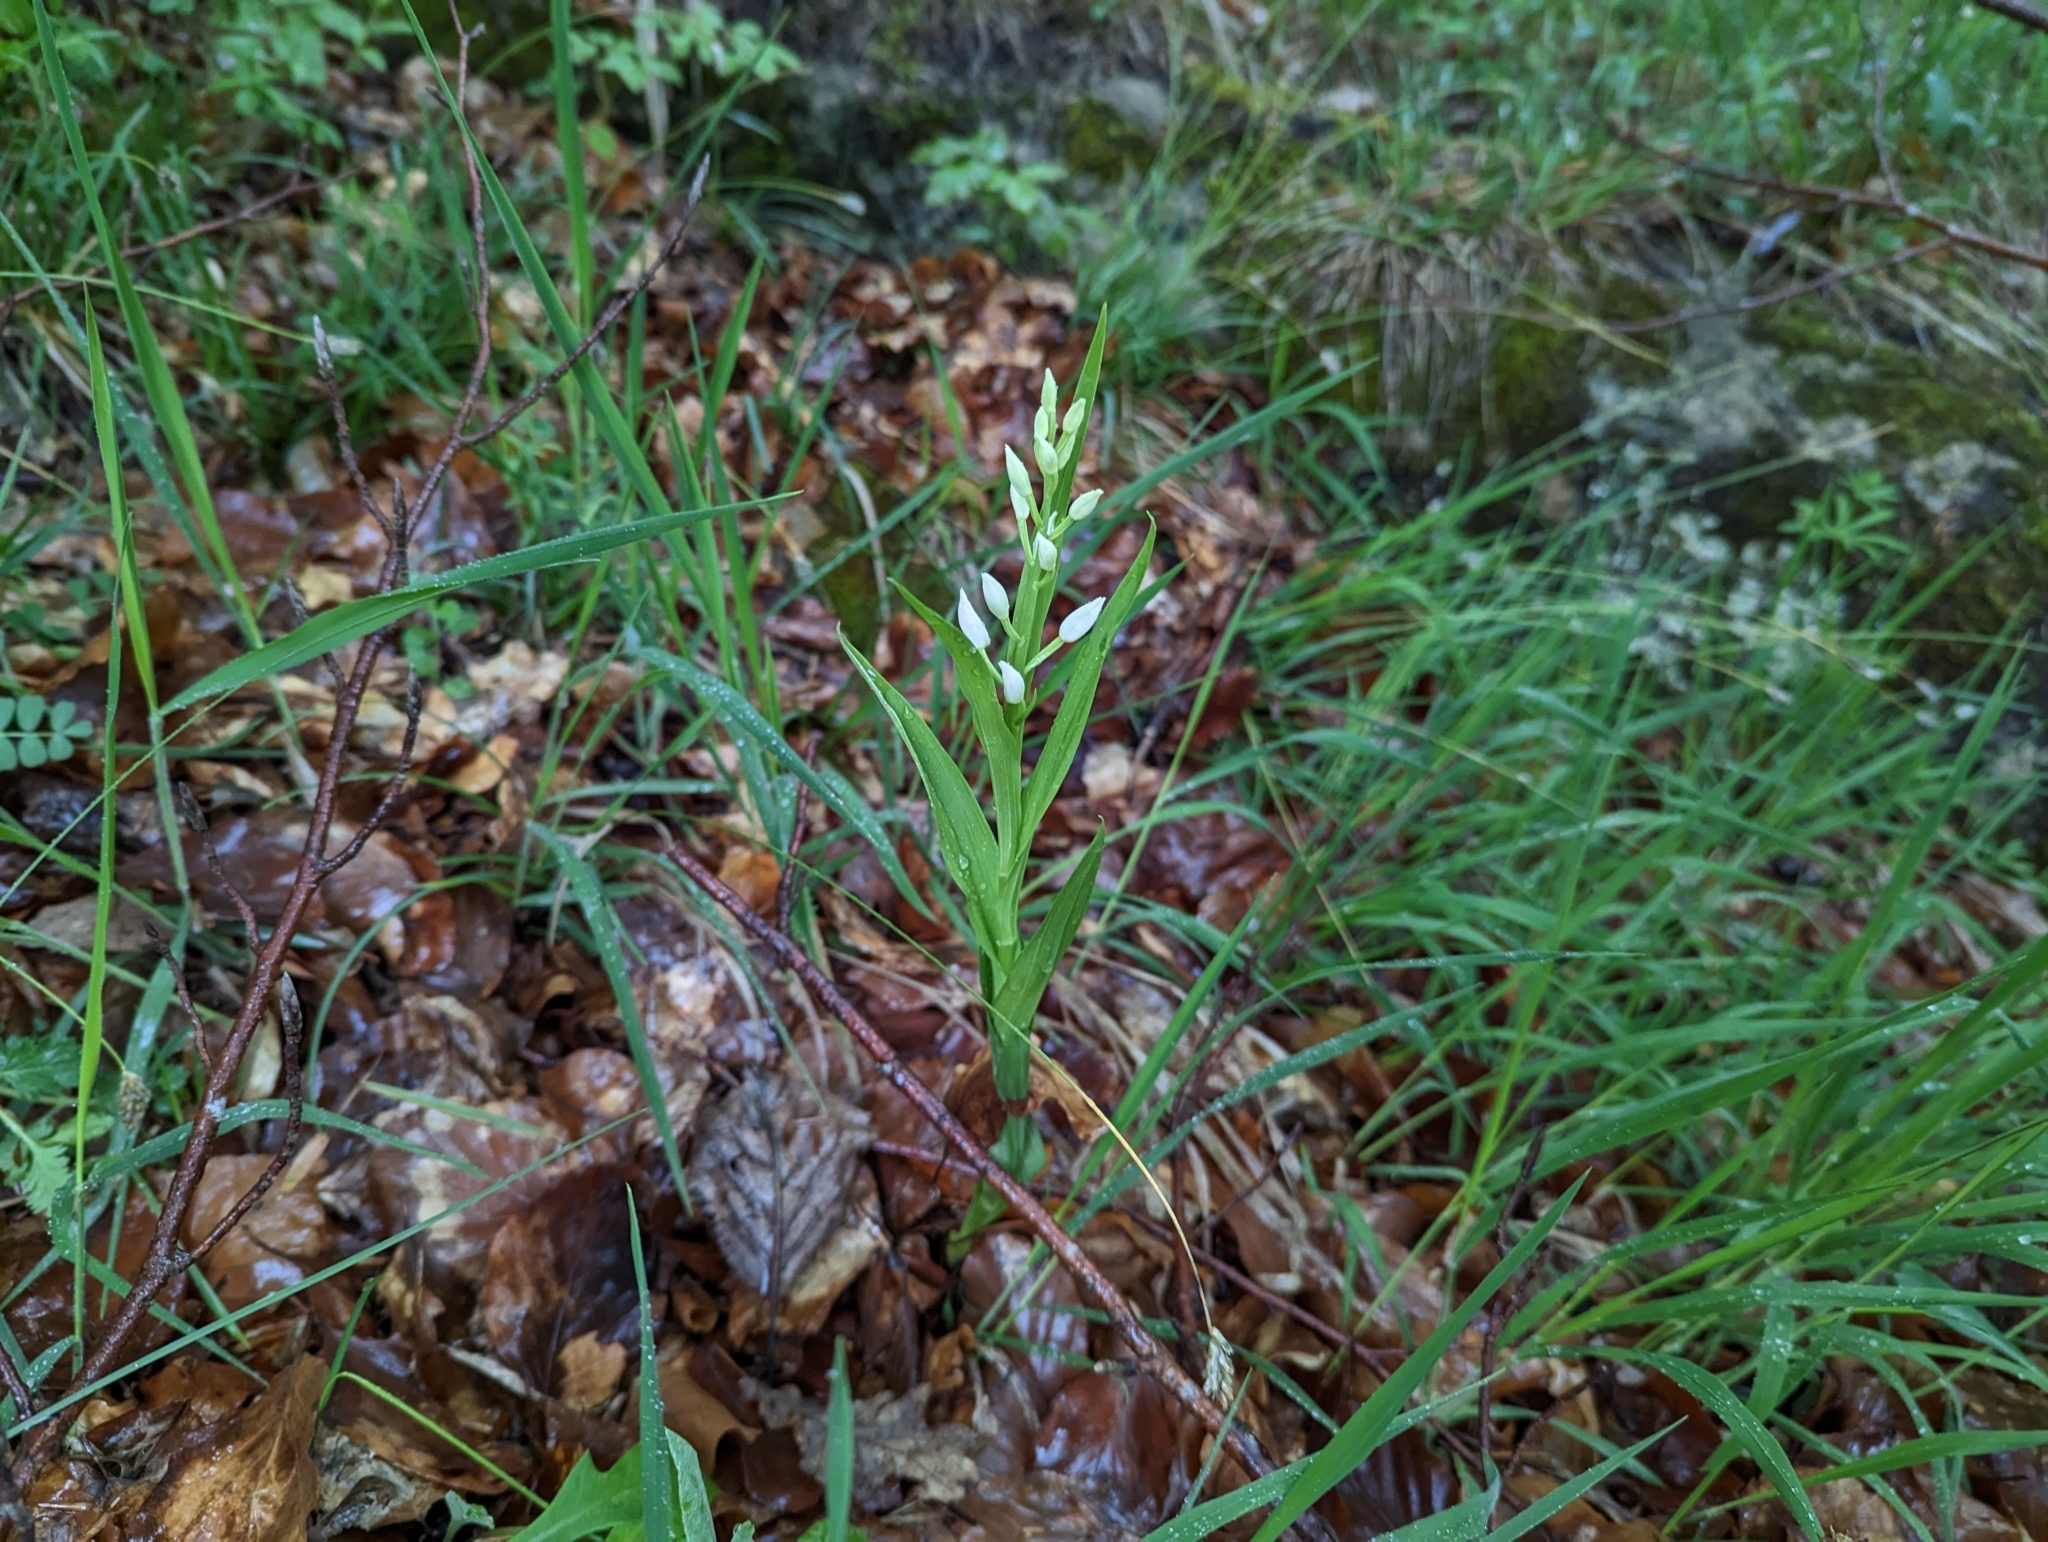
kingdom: Plantae
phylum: Tracheophyta
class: Liliopsida
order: Asparagales
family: Orchidaceae
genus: Cephalanthera
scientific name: Cephalanthera longifolia
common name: Narrow-leaved helleborine
